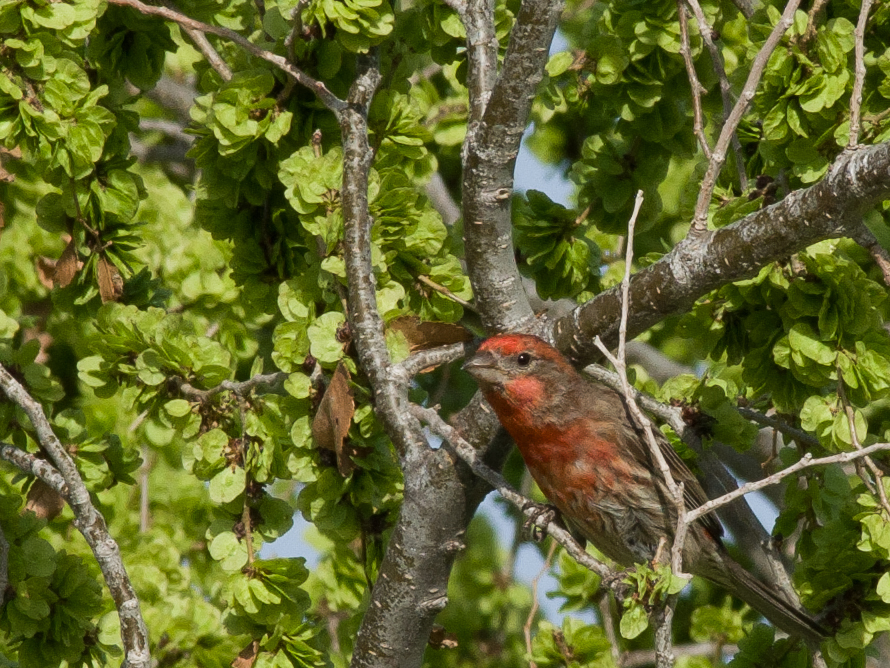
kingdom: Animalia
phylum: Chordata
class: Aves
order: Passeriformes
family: Fringillidae
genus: Haemorhous
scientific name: Haemorhous mexicanus
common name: House finch
